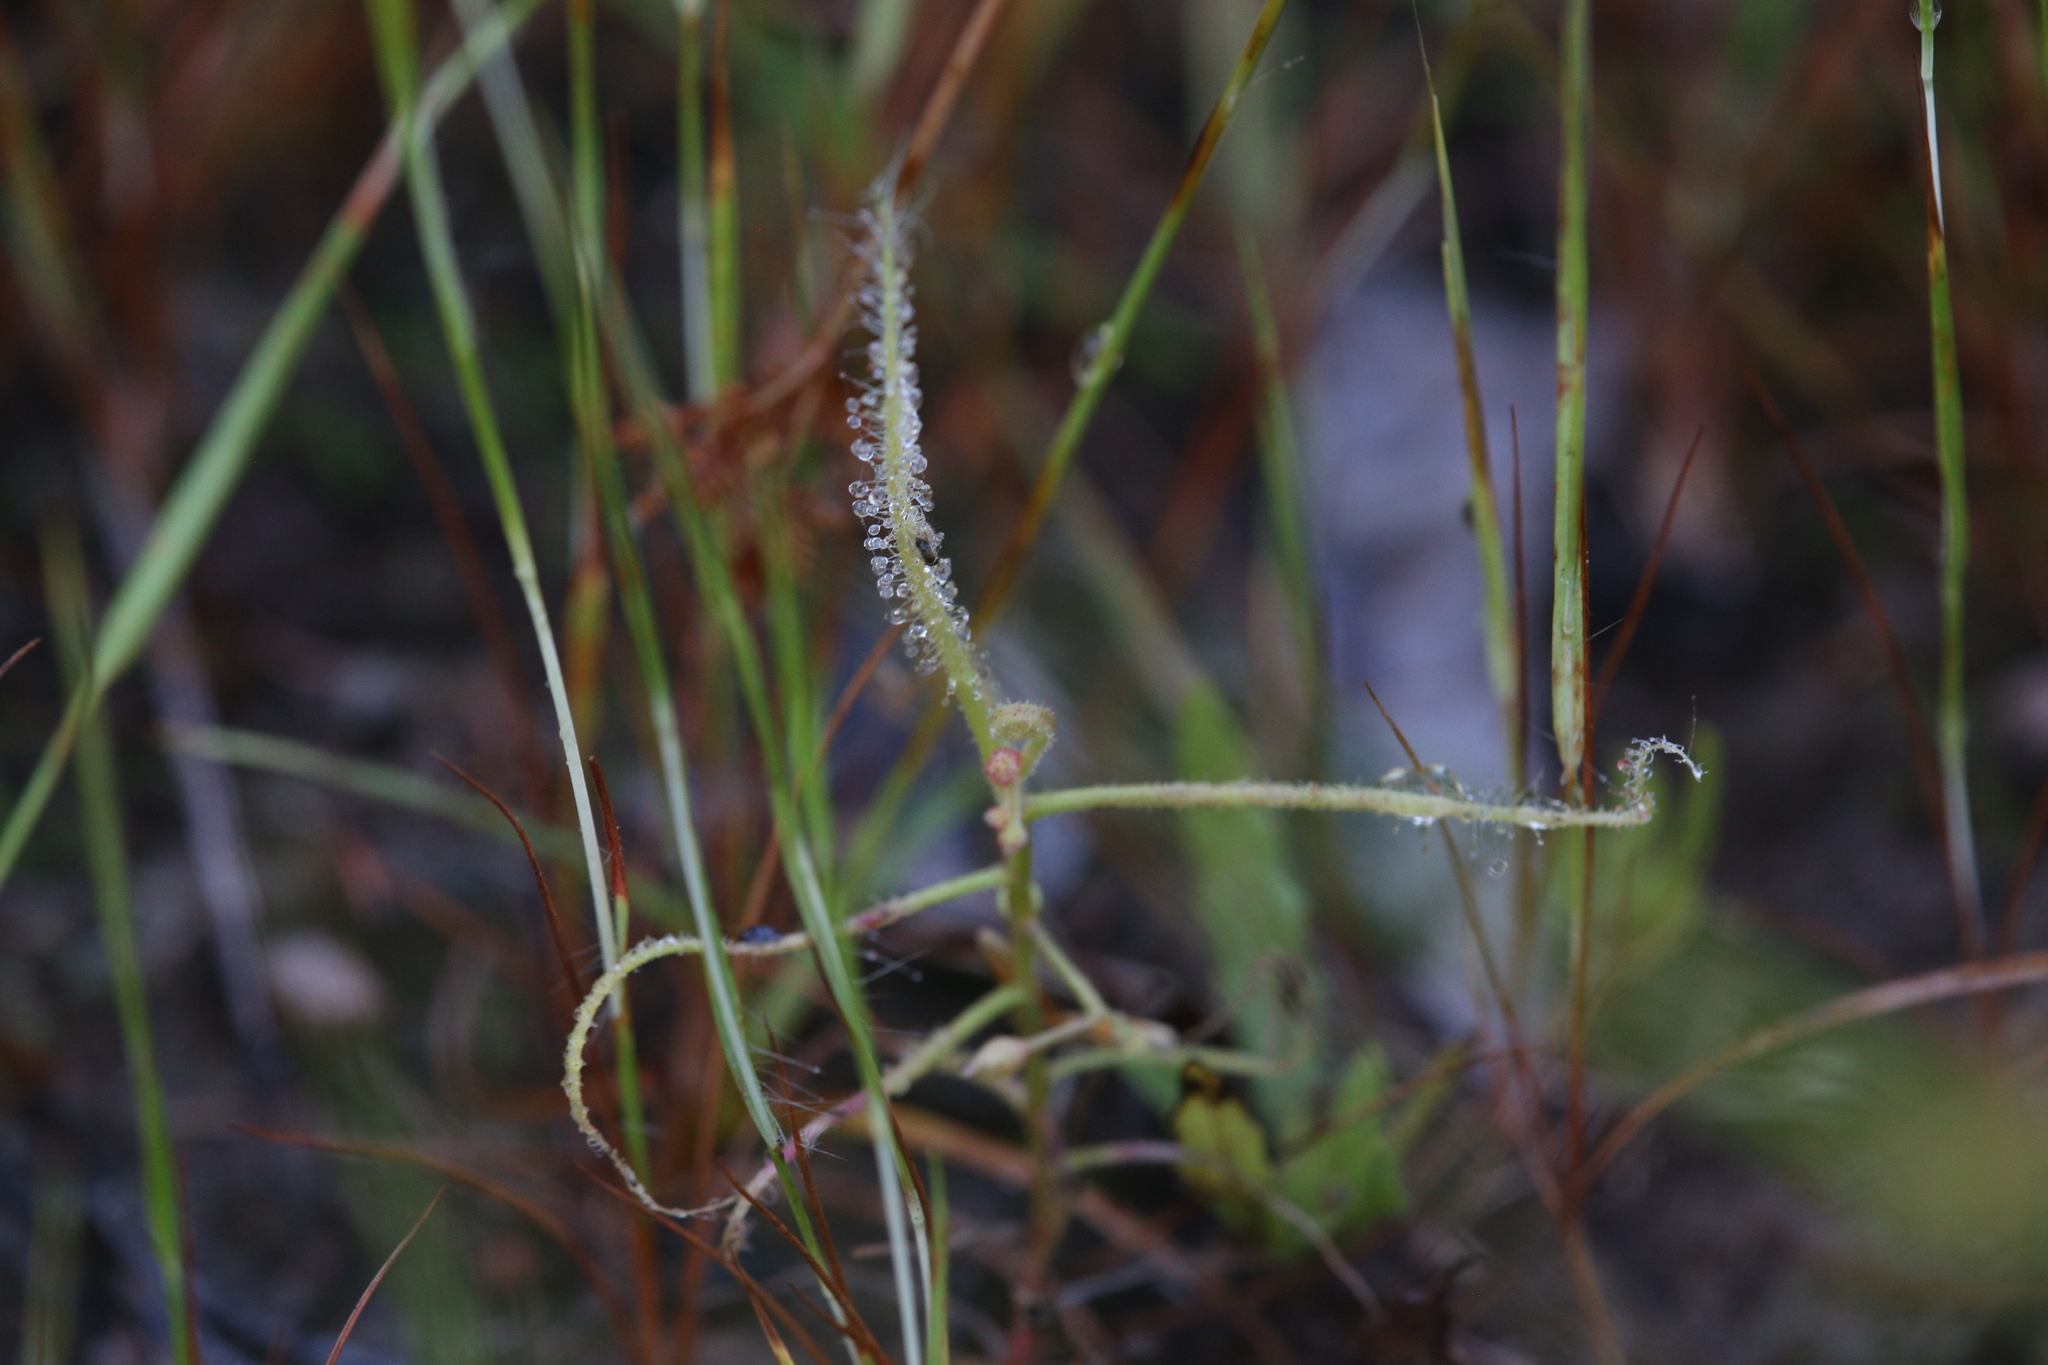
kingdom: Plantae
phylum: Tracheophyta
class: Magnoliopsida
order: Caryophyllales
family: Droseraceae
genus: Drosera
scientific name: Drosera indica
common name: Indian sundew
